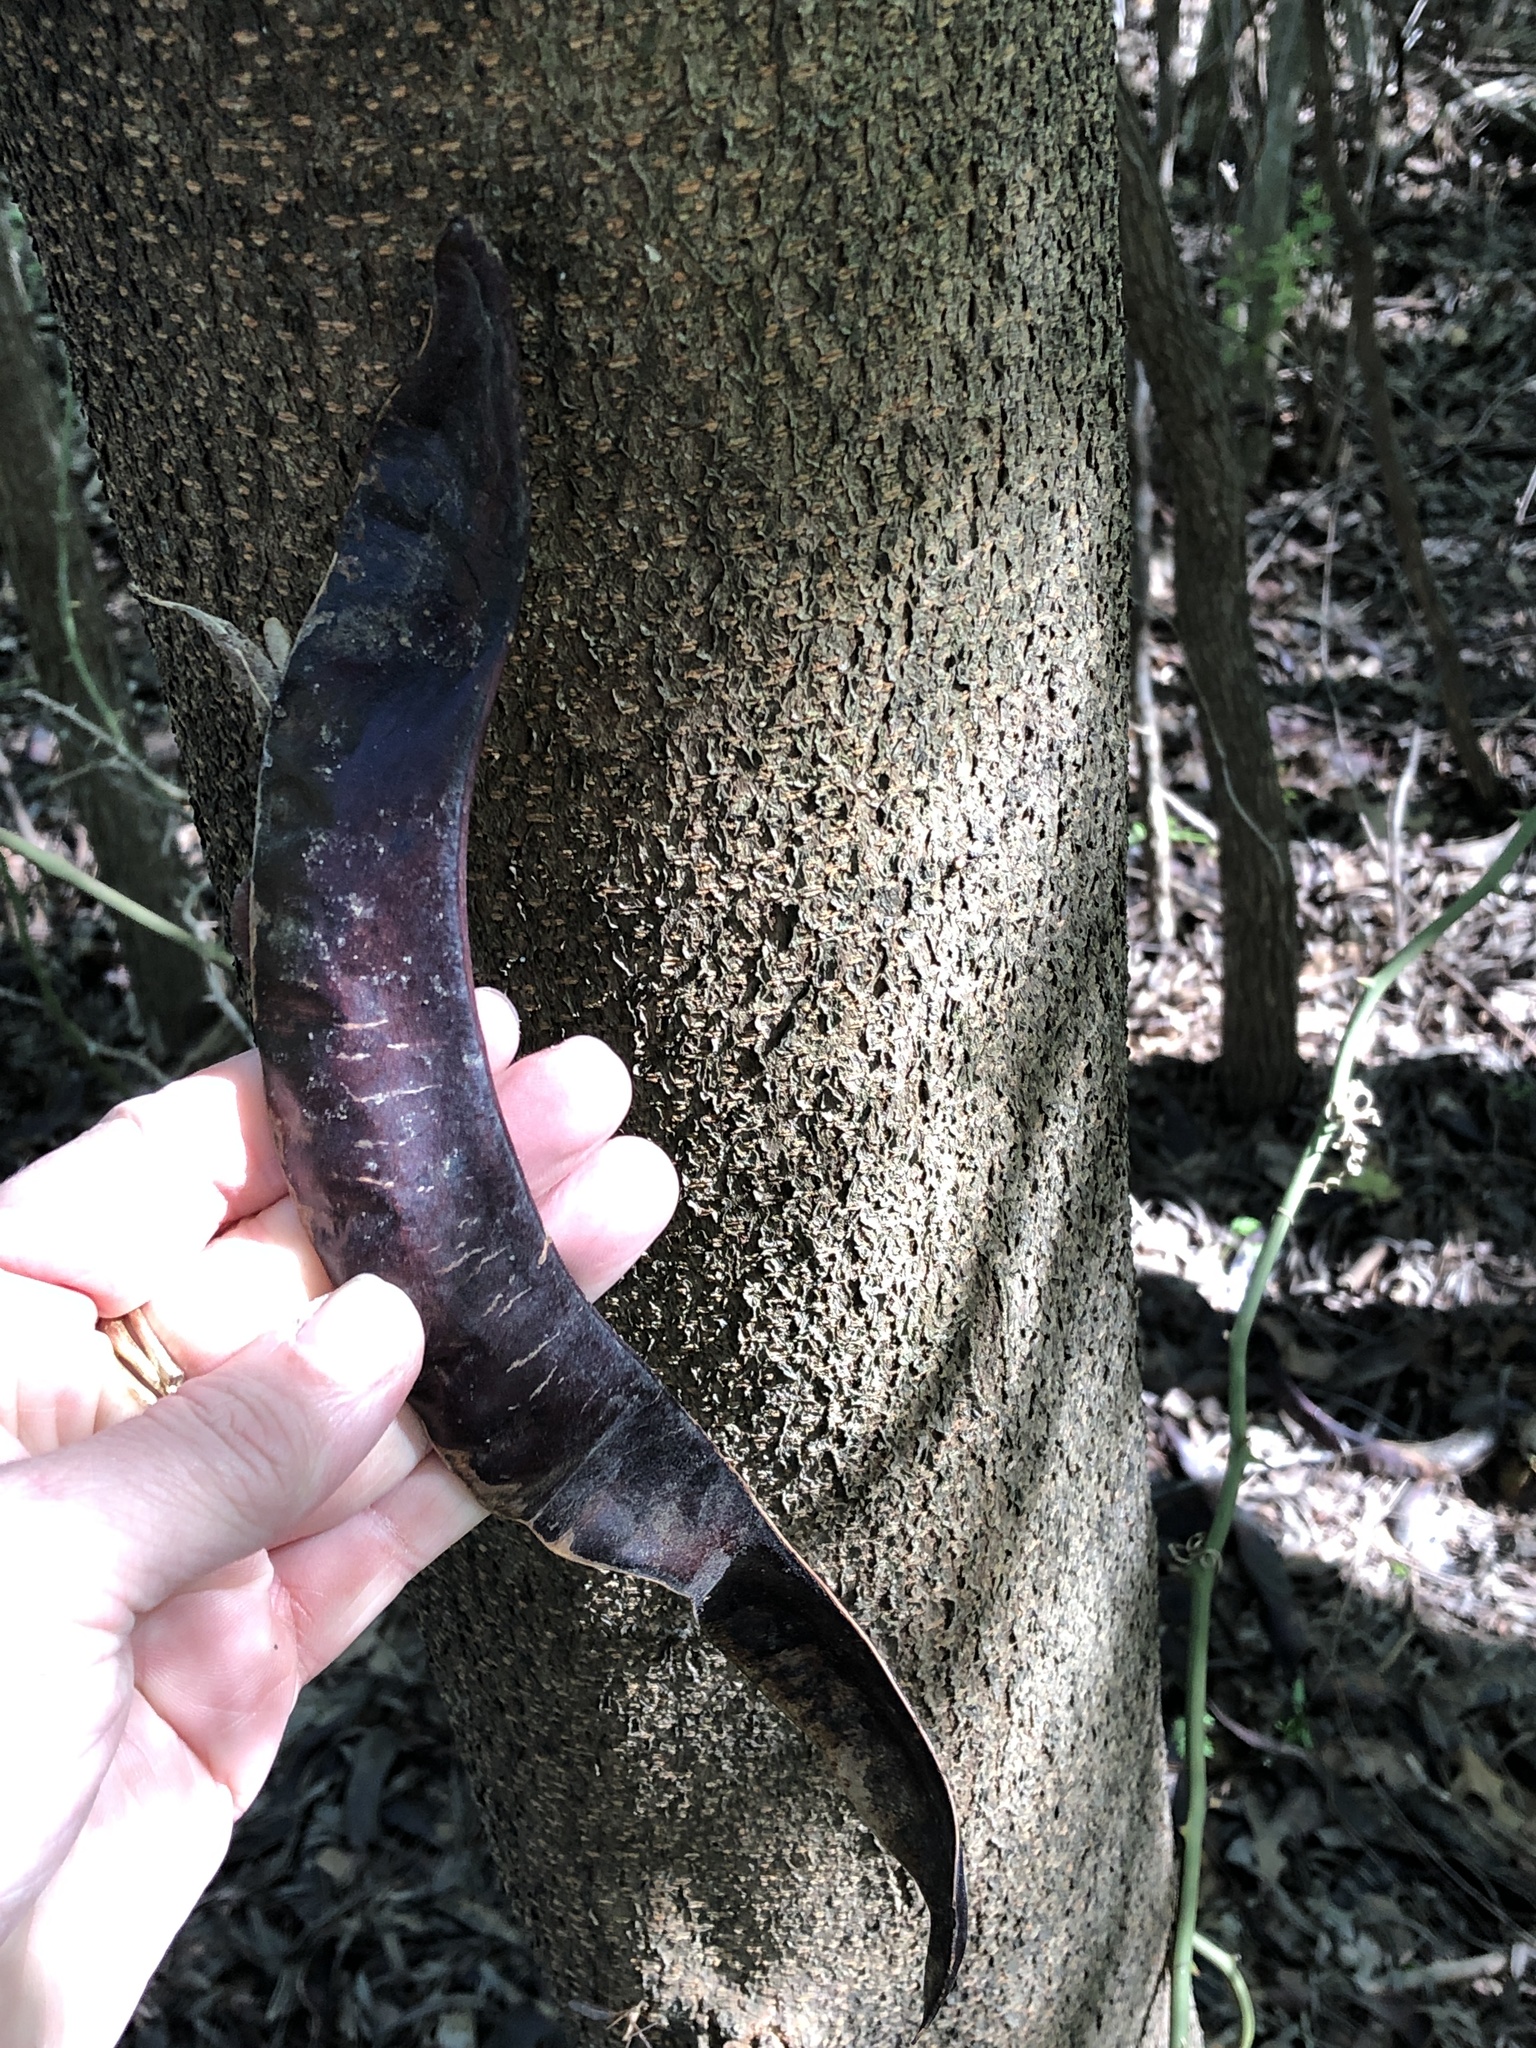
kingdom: Plantae
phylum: Tracheophyta
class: Magnoliopsida
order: Fabales
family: Fabaceae
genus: Gleditsia
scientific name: Gleditsia triacanthos
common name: Common honeylocust
